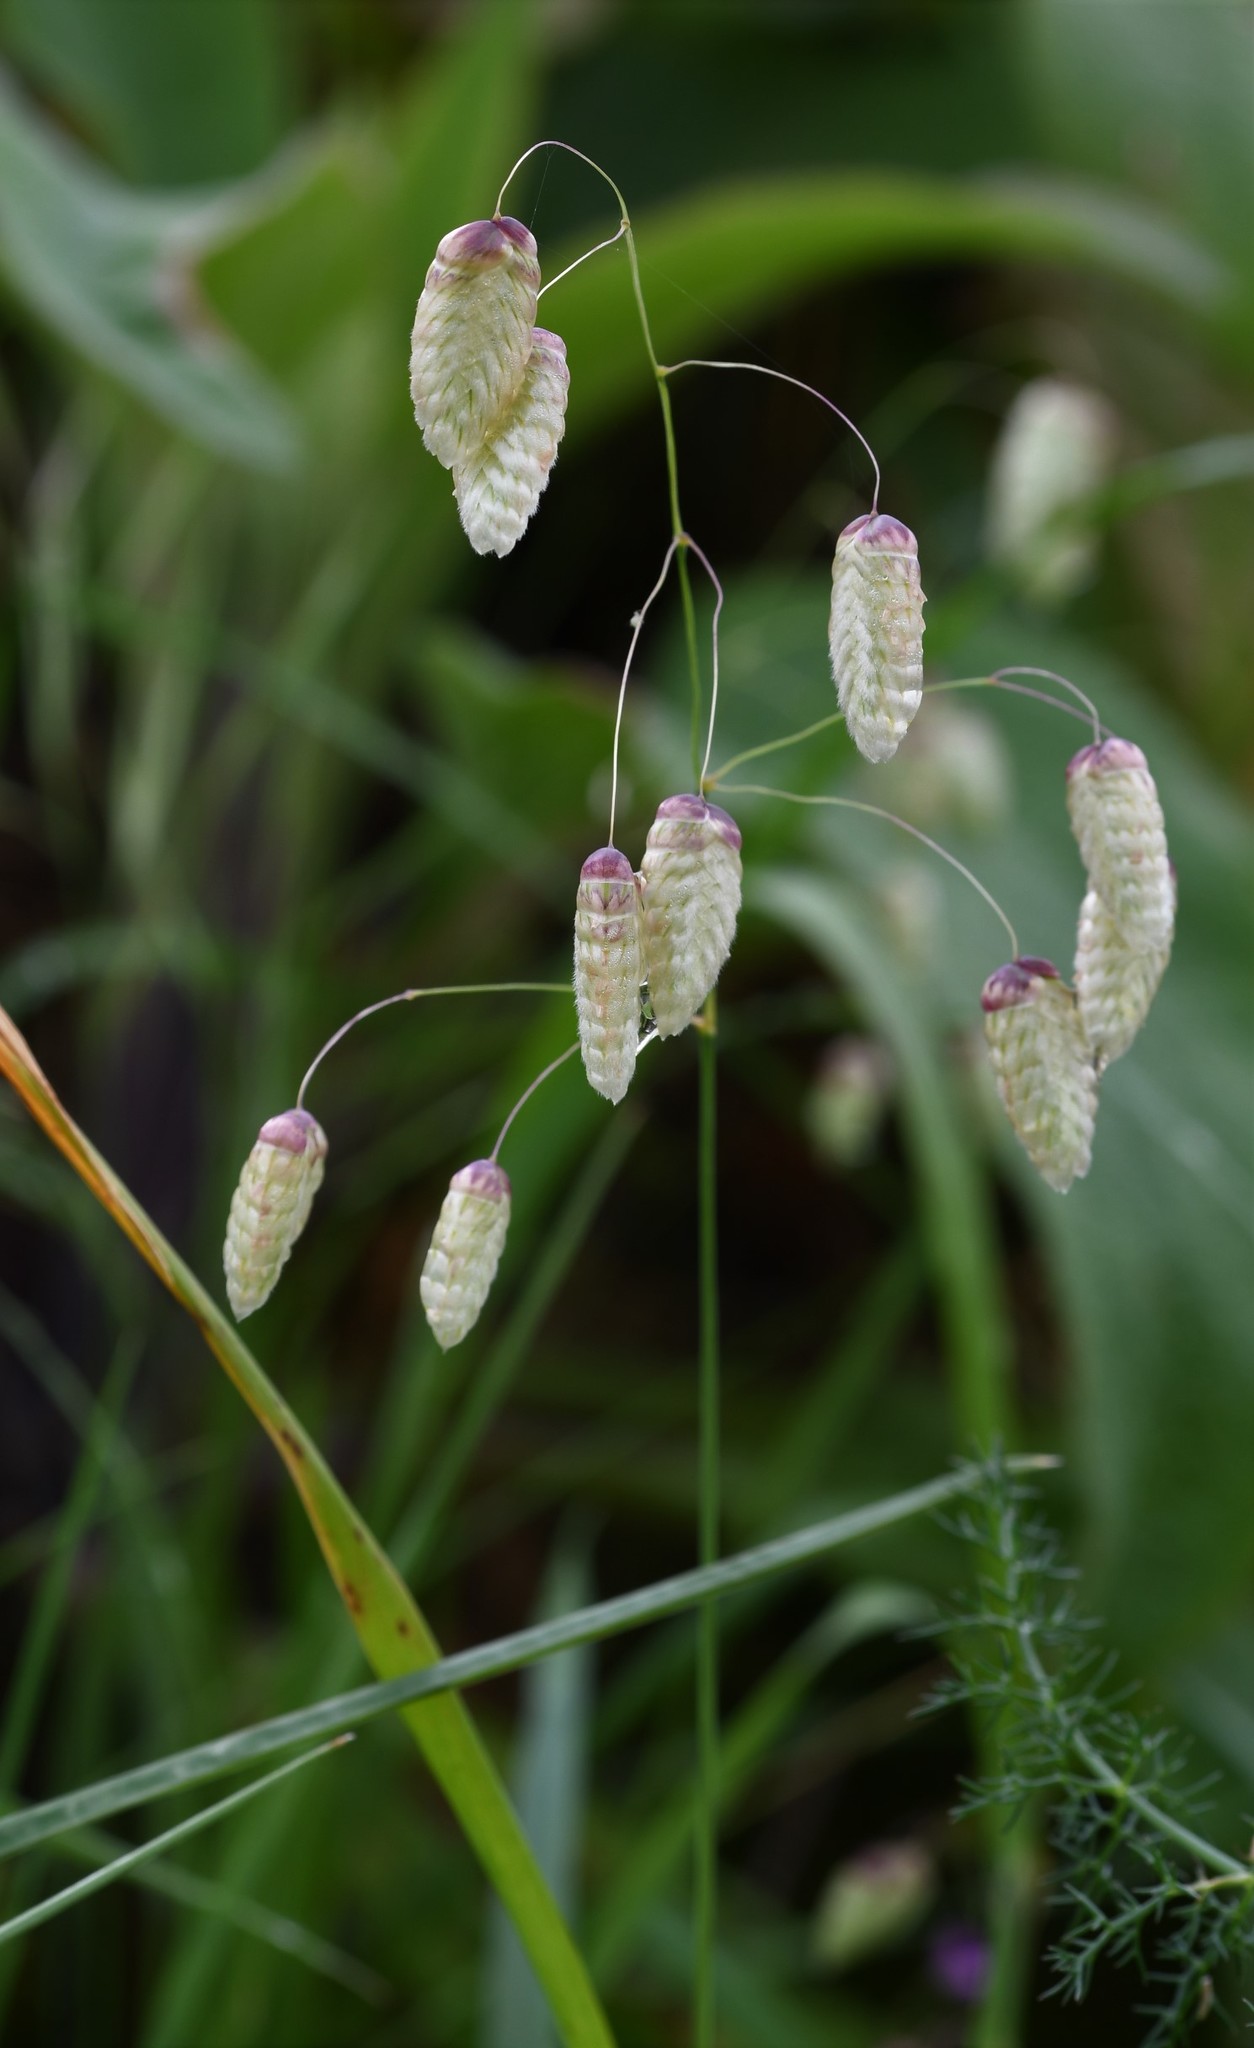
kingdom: Plantae
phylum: Tracheophyta
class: Liliopsida
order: Poales
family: Poaceae
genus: Briza
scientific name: Briza maxima
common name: Big quakinggrass
